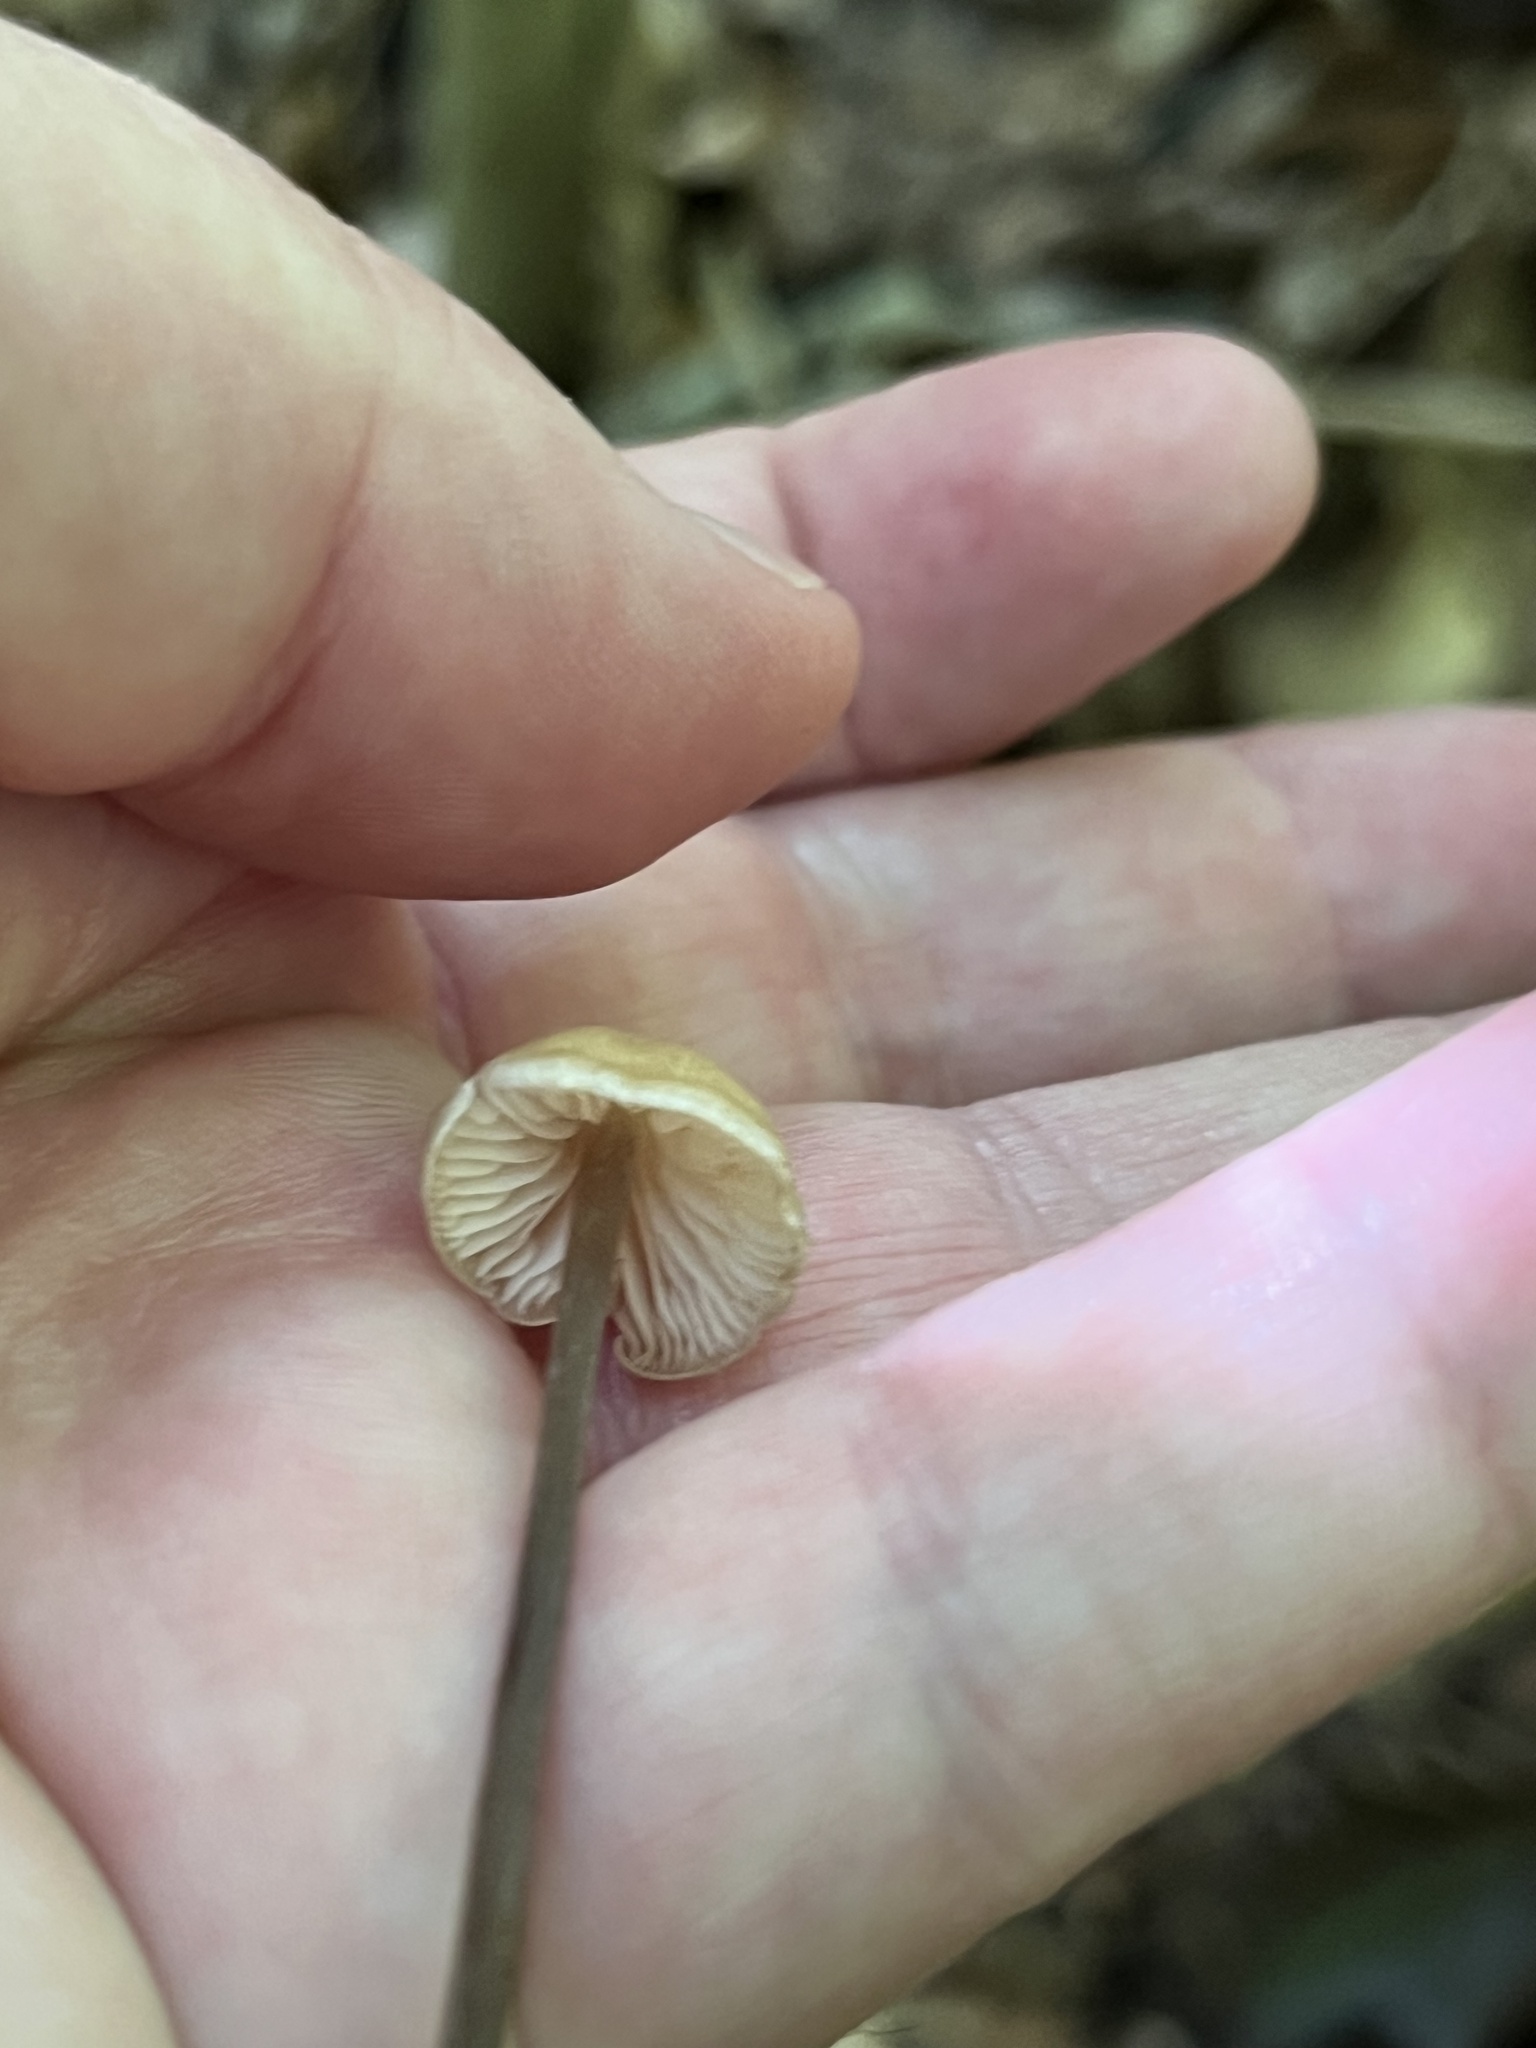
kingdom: Fungi
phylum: Basidiomycota
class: Agaricomycetes
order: Agaricales
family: Entolomataceae
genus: Entoloma
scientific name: Entoloma conicum
